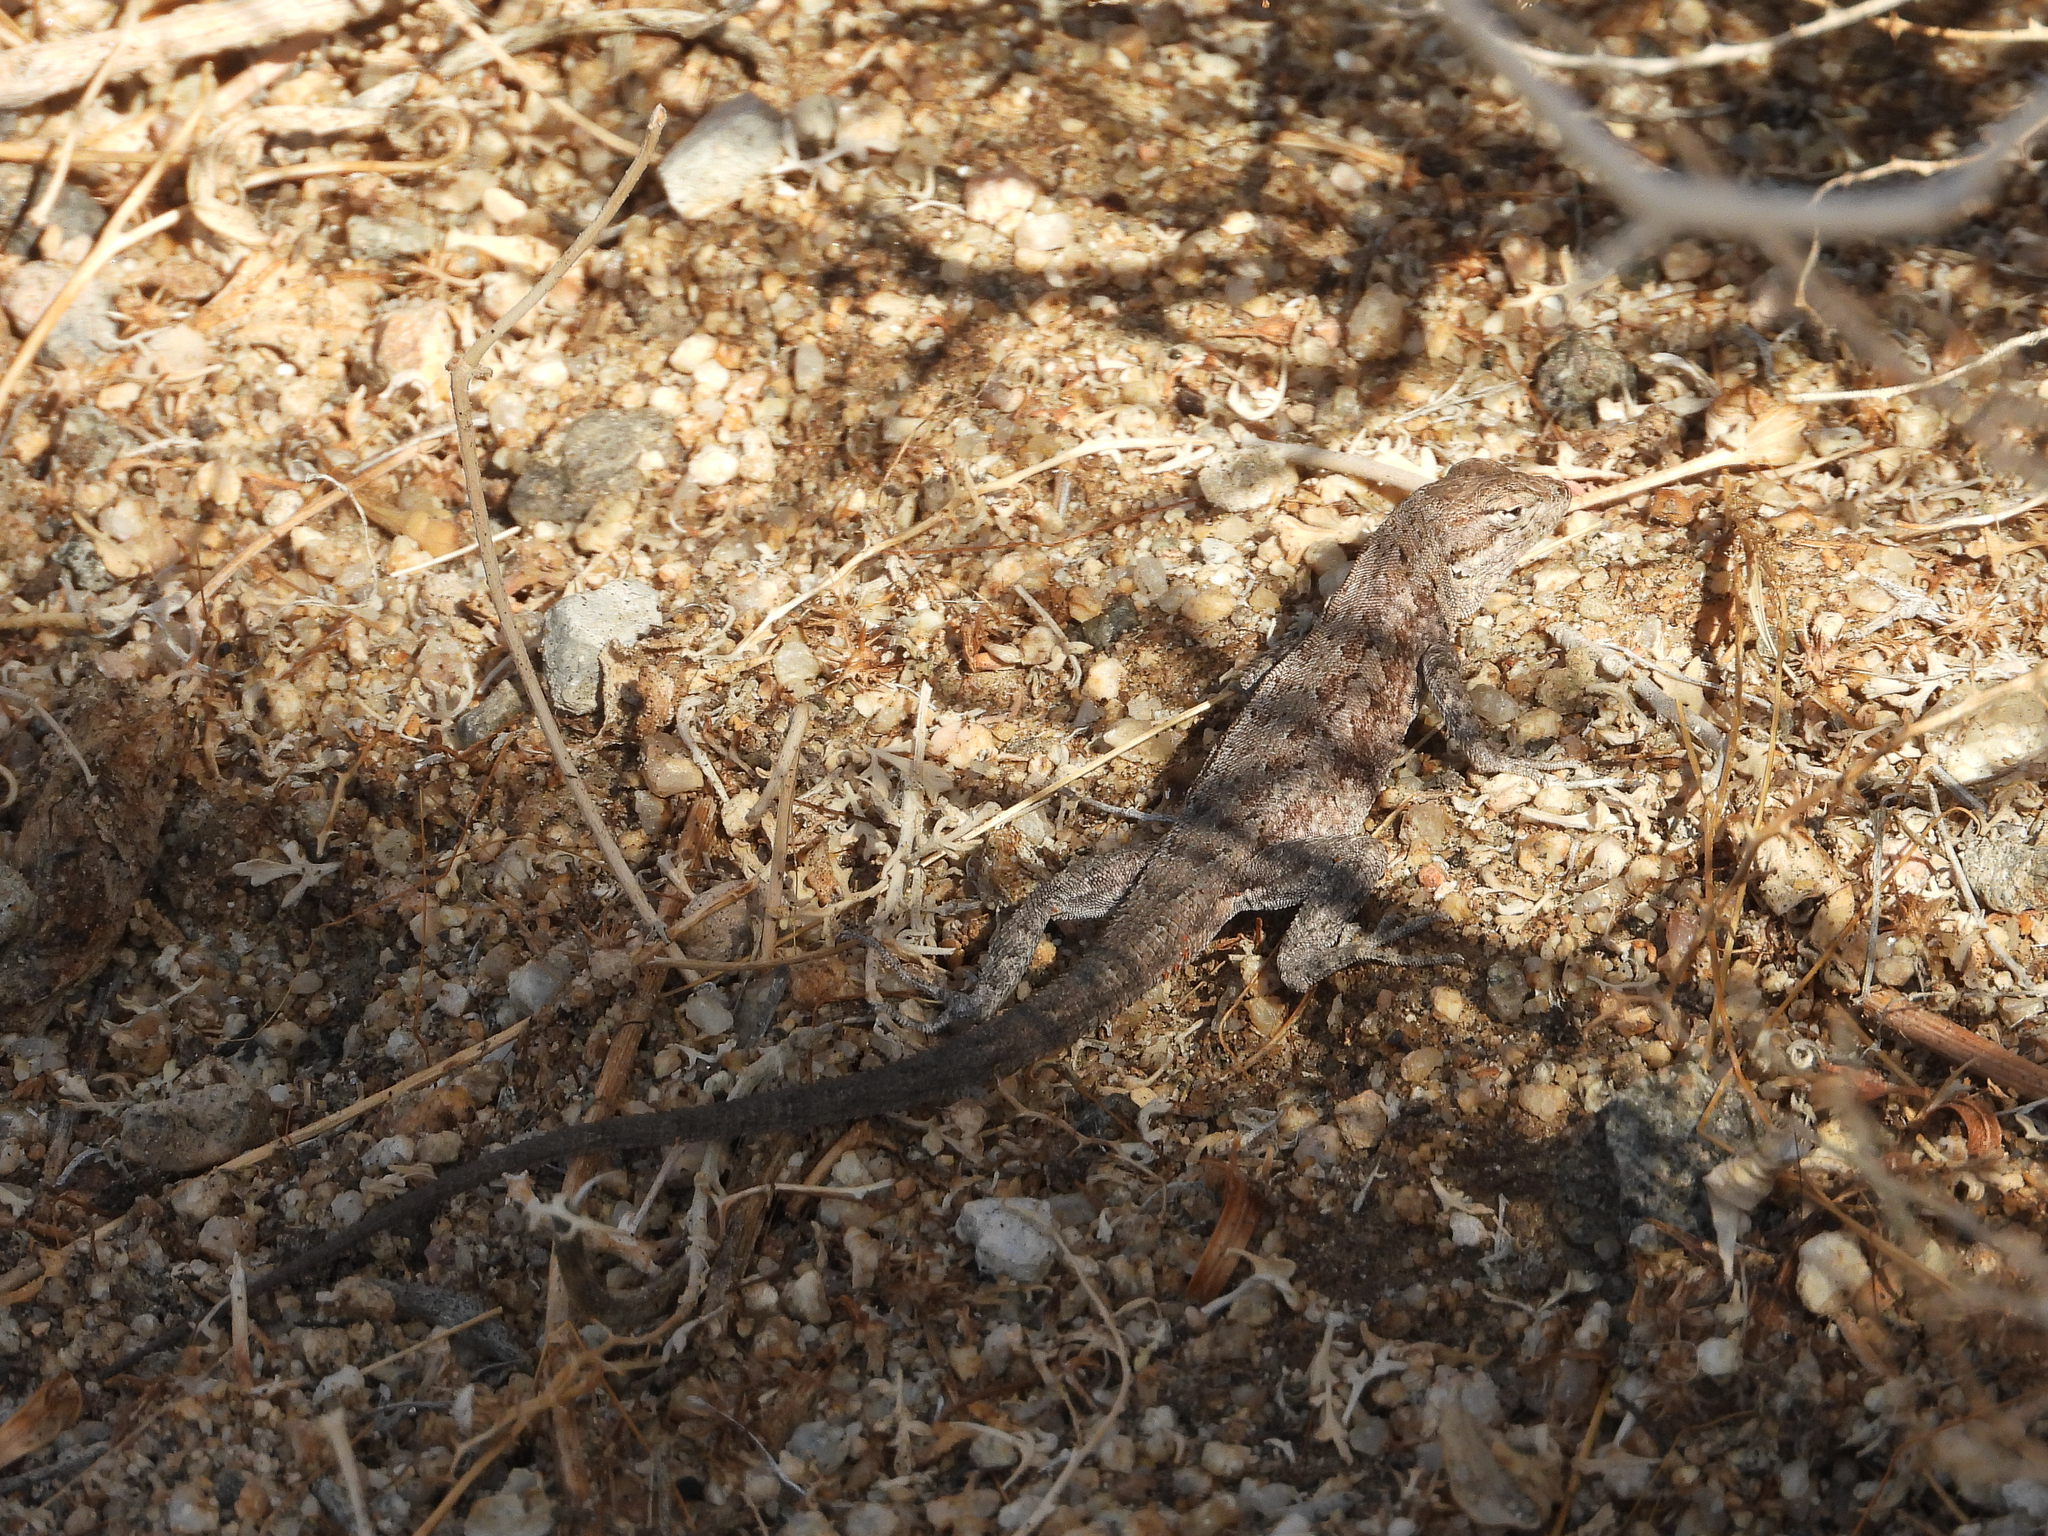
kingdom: Animalia
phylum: Chordata
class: Squamata
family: Phrynosomatidae
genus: Uta
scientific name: Uta stansburiana
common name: Side-blotched lizard
